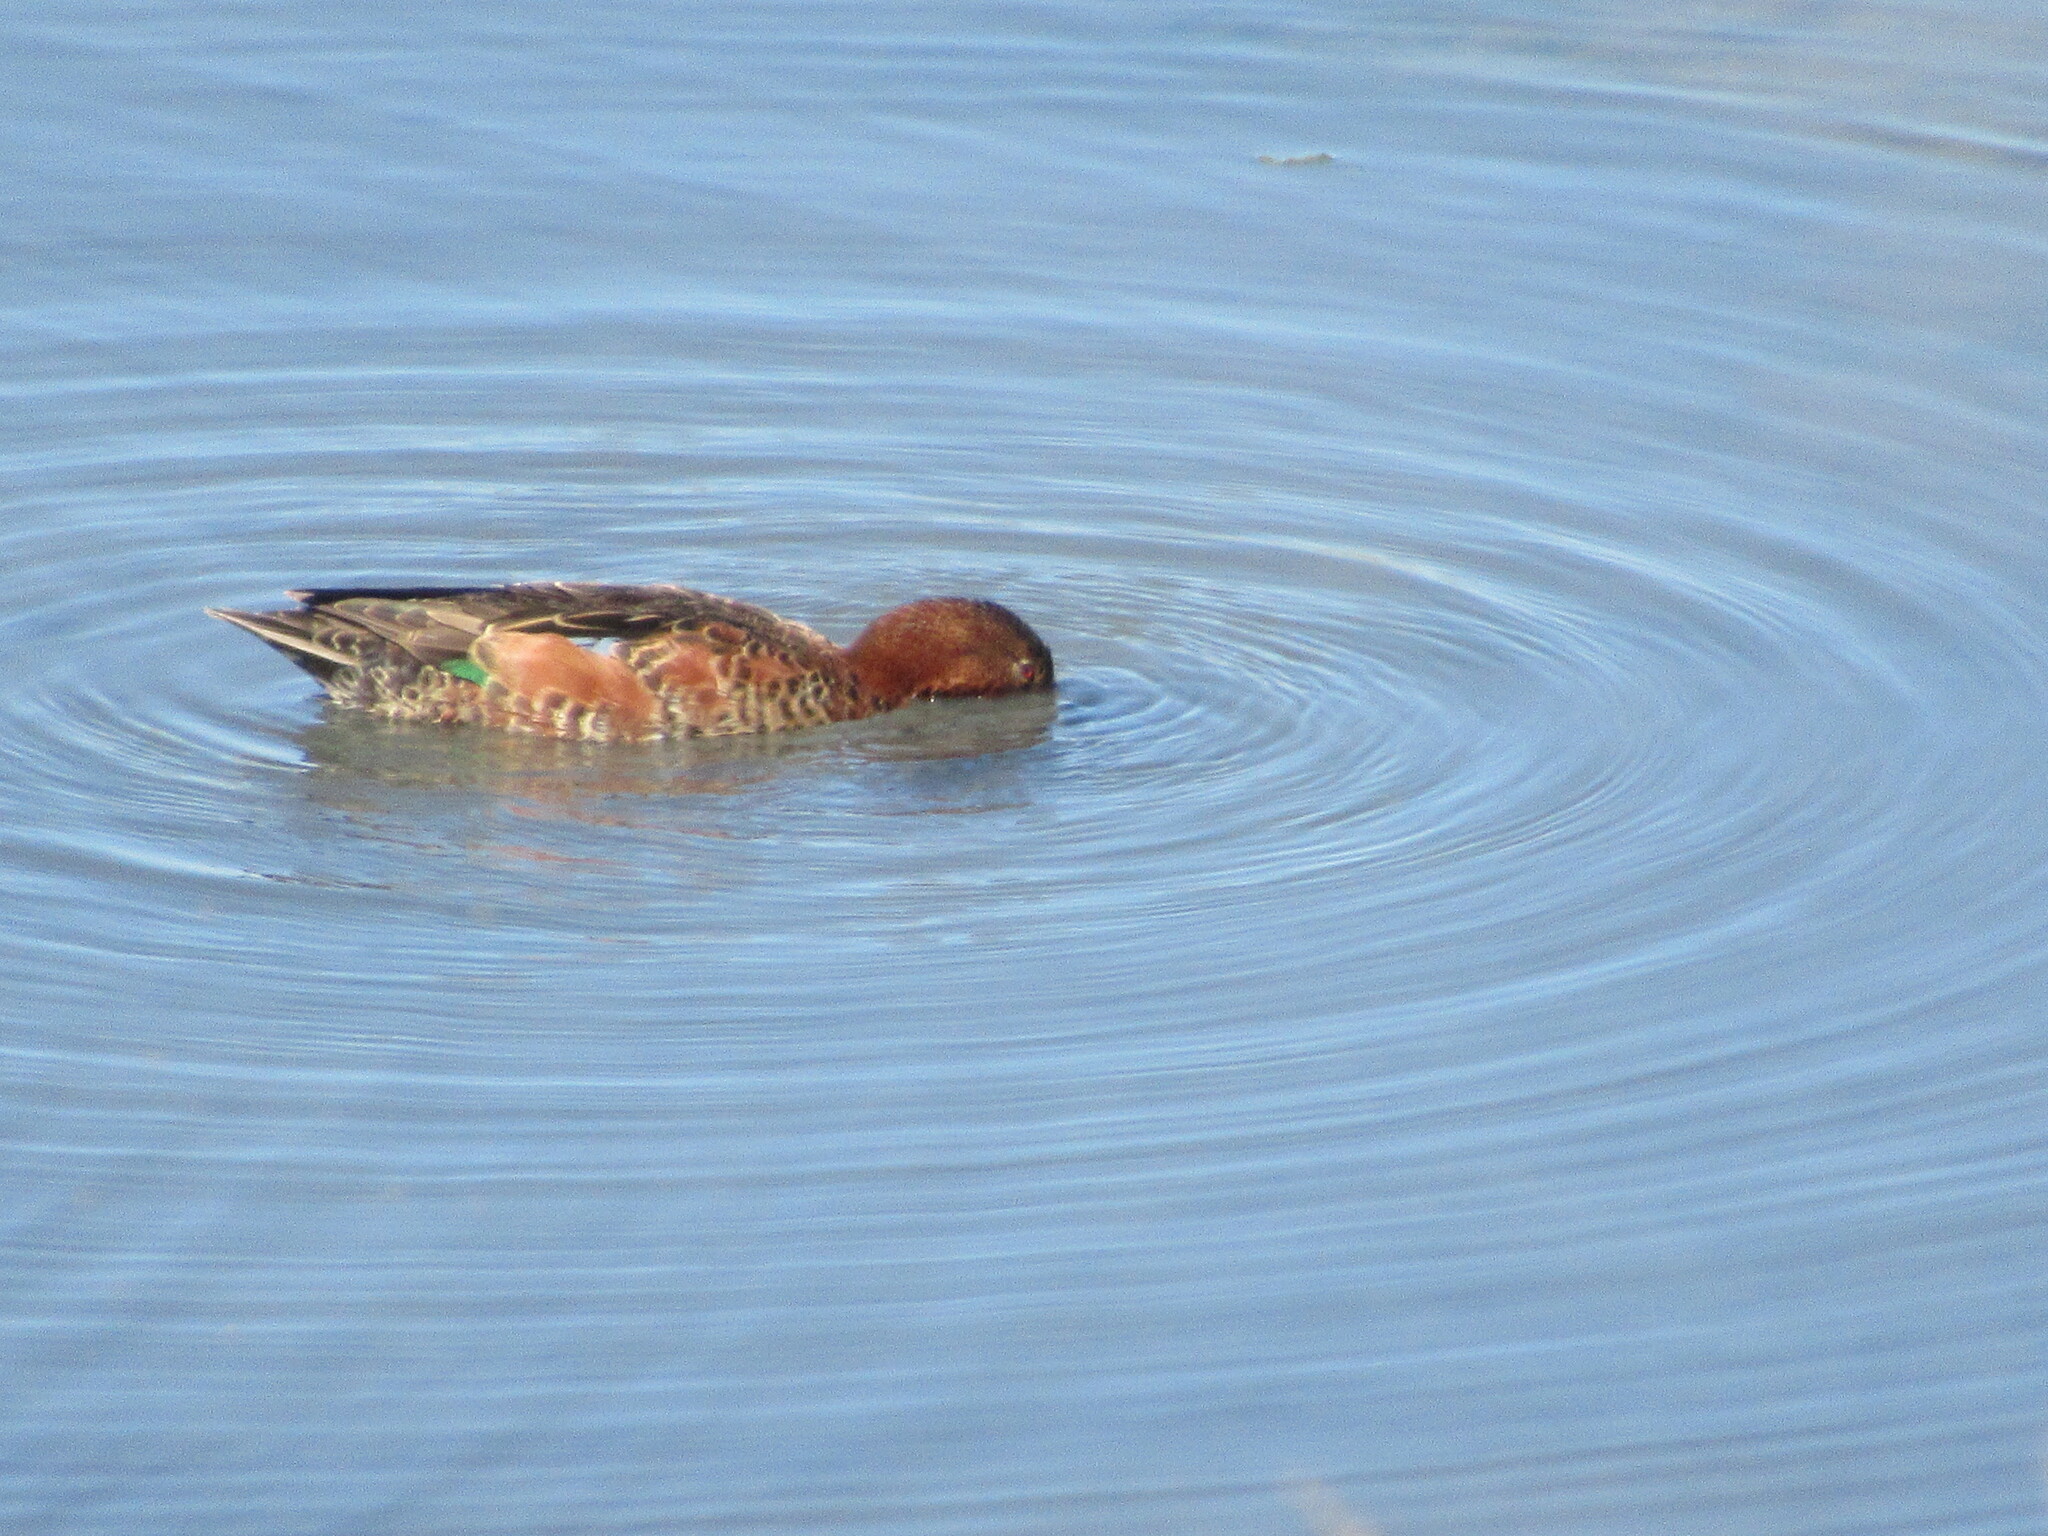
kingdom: Animalia
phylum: Chordata
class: Aves
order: Anseriformes
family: Anatidae
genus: Spatula
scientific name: Spatula cyanoptera
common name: Cinnamon teal
